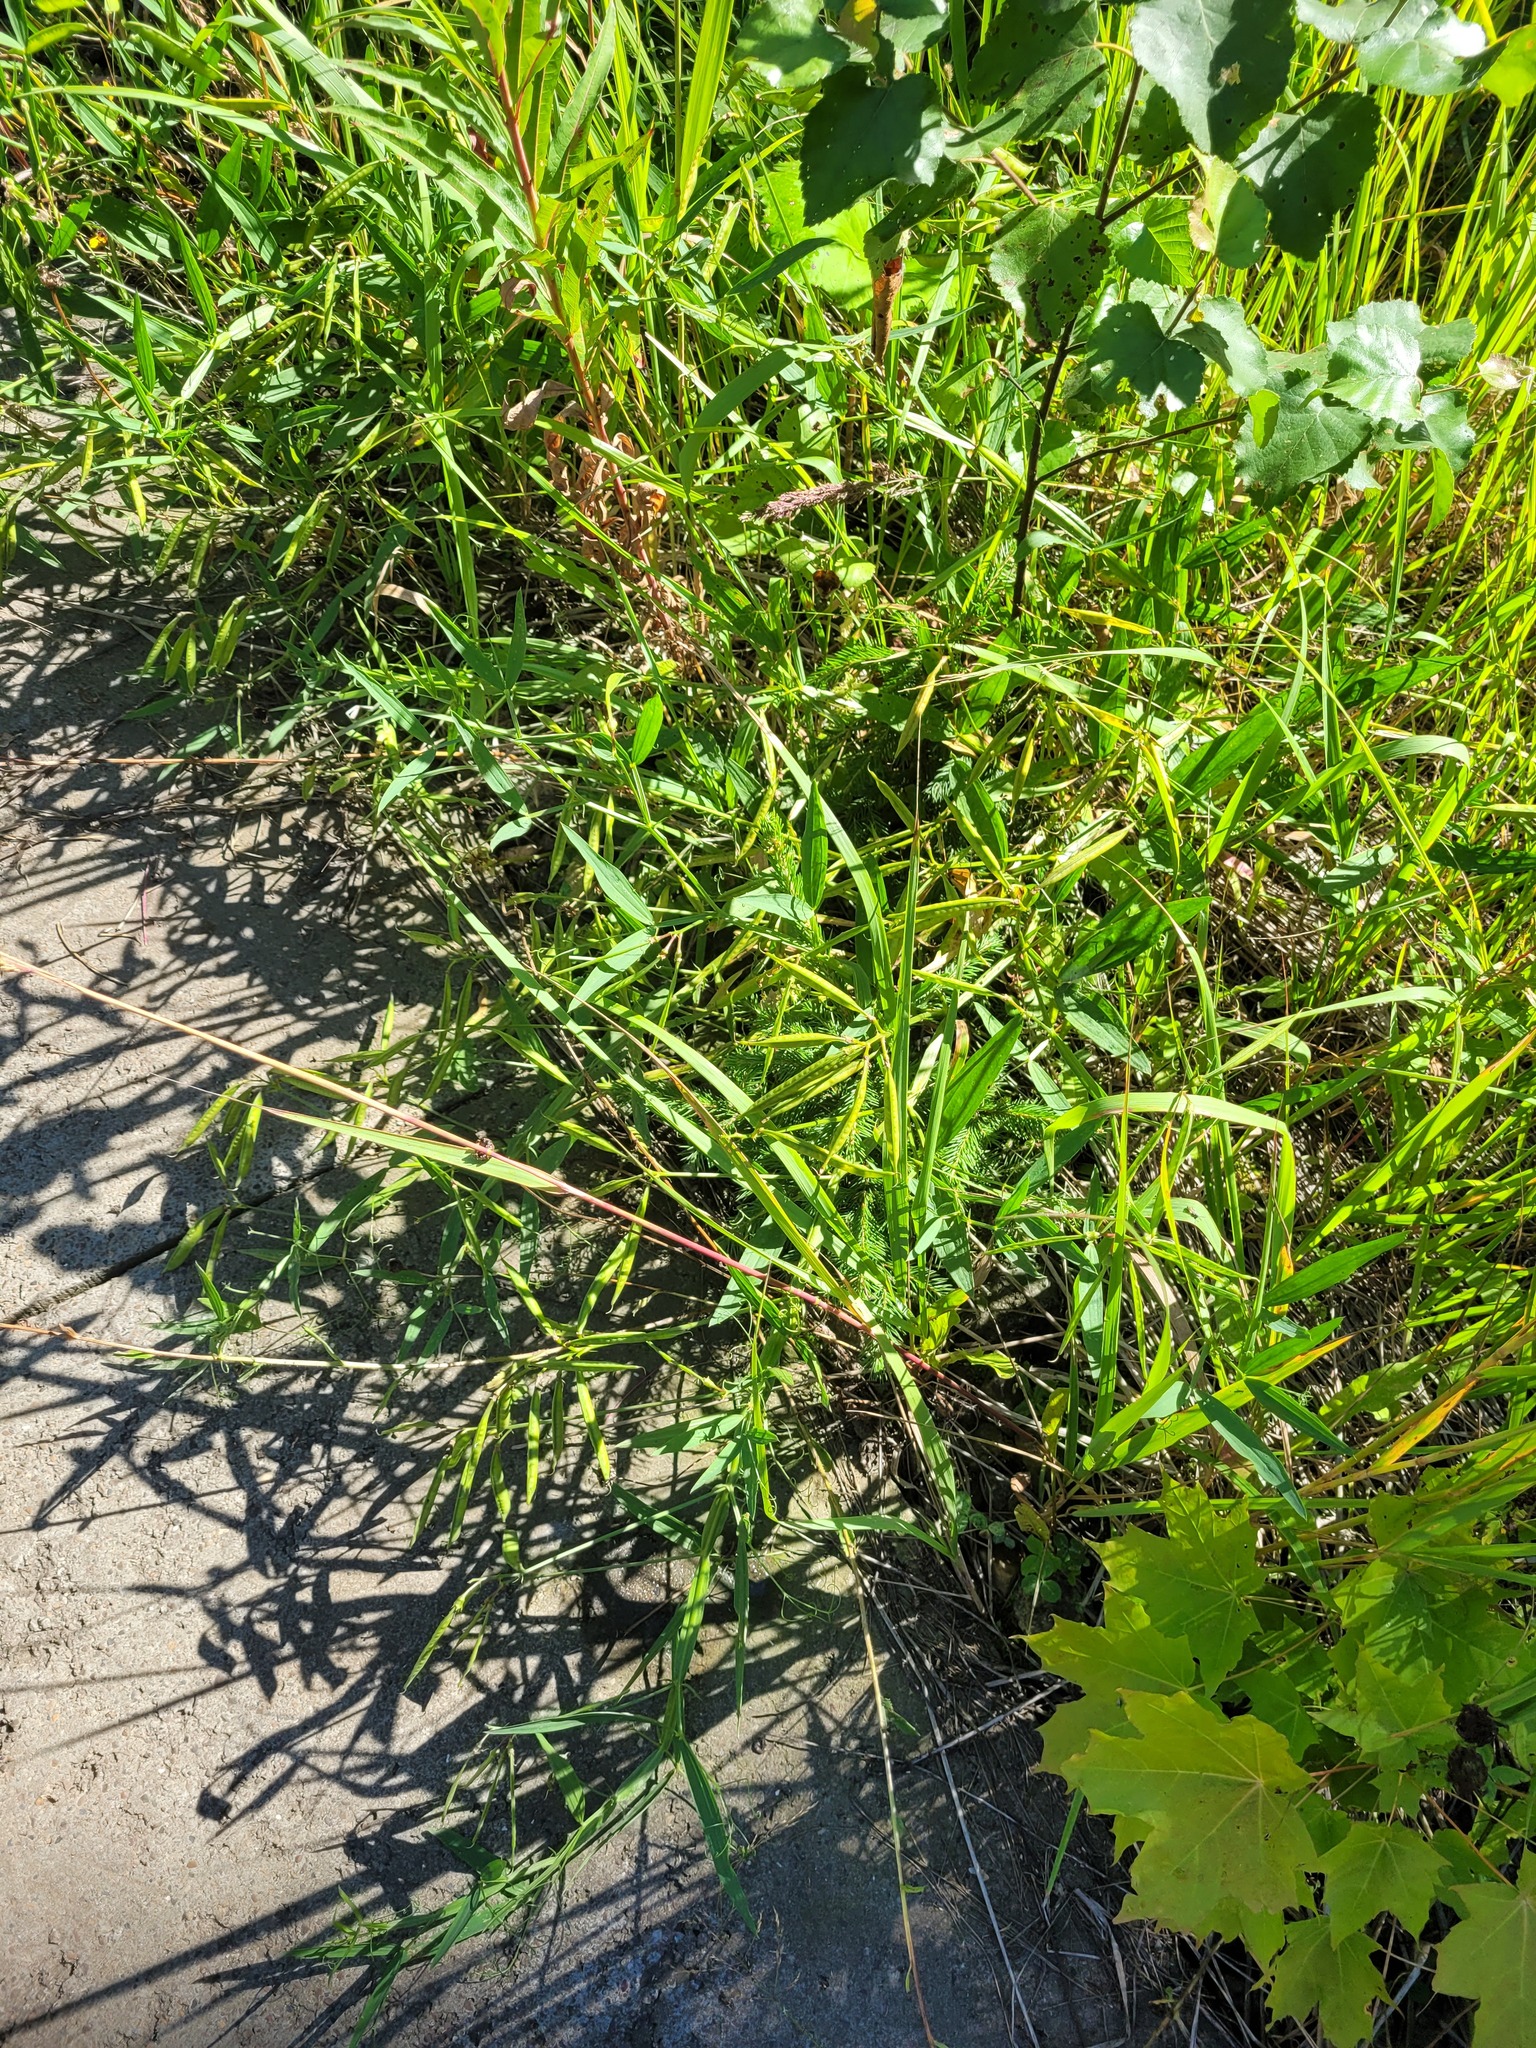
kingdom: Plantae
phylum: Tracheophyta
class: Magnoliopsida
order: Fabales
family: Fabaceae
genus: Lathyrus
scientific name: Lathyrus sylvestris
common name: Flat pea
